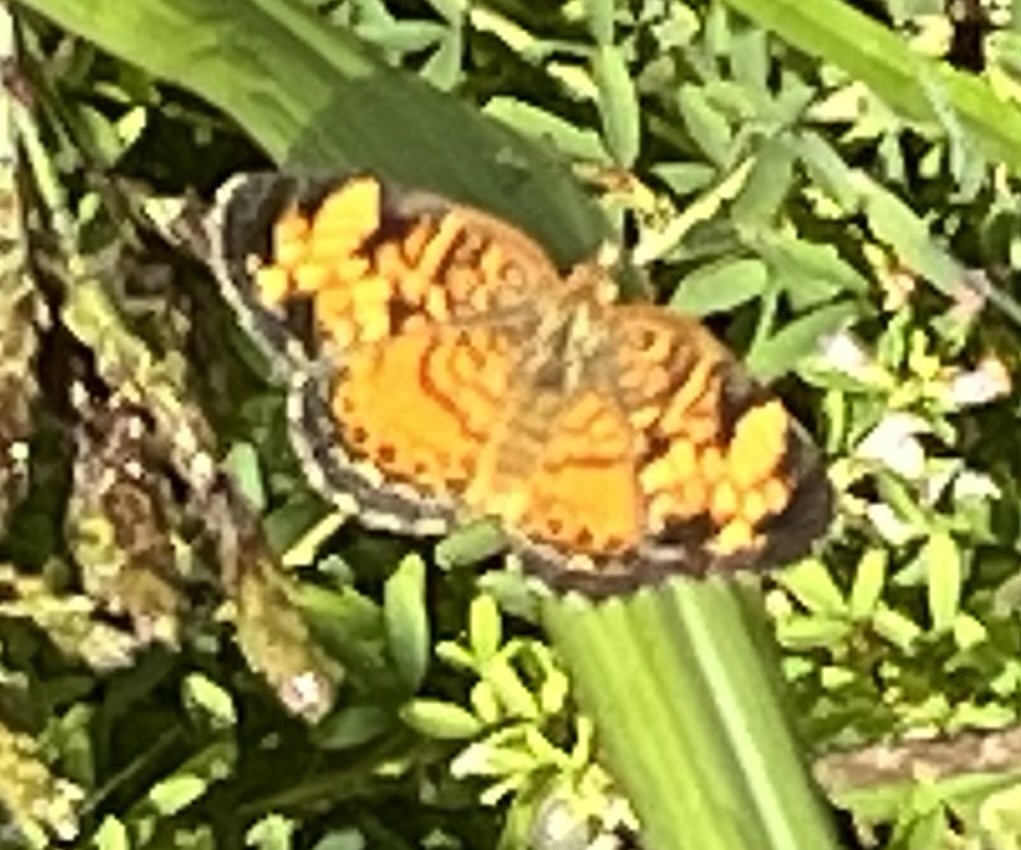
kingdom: Animalia
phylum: Arthropoda
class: Insecta
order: Lepidoptera
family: Nymphalidae
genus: Phyciodes
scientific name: Phyciodes tharos
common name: Pearl crescent
